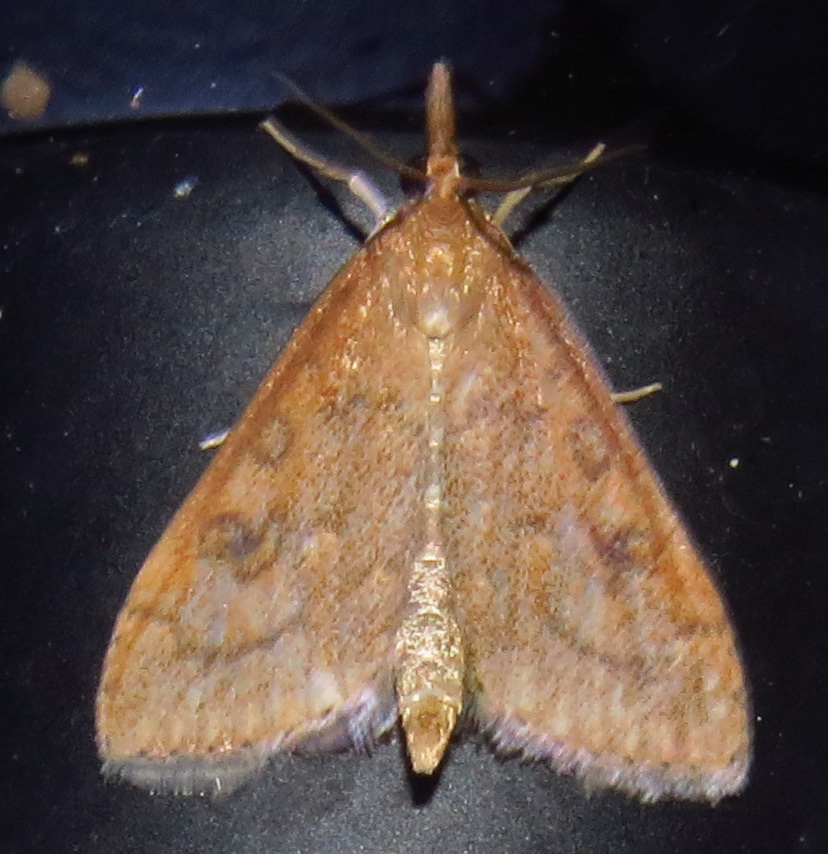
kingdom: Animalia
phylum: Arthropoda
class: Insecta
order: Lepidoptera
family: Crambidae
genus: Udea
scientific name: Udea rubigalis
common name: Celery leaftier moth
